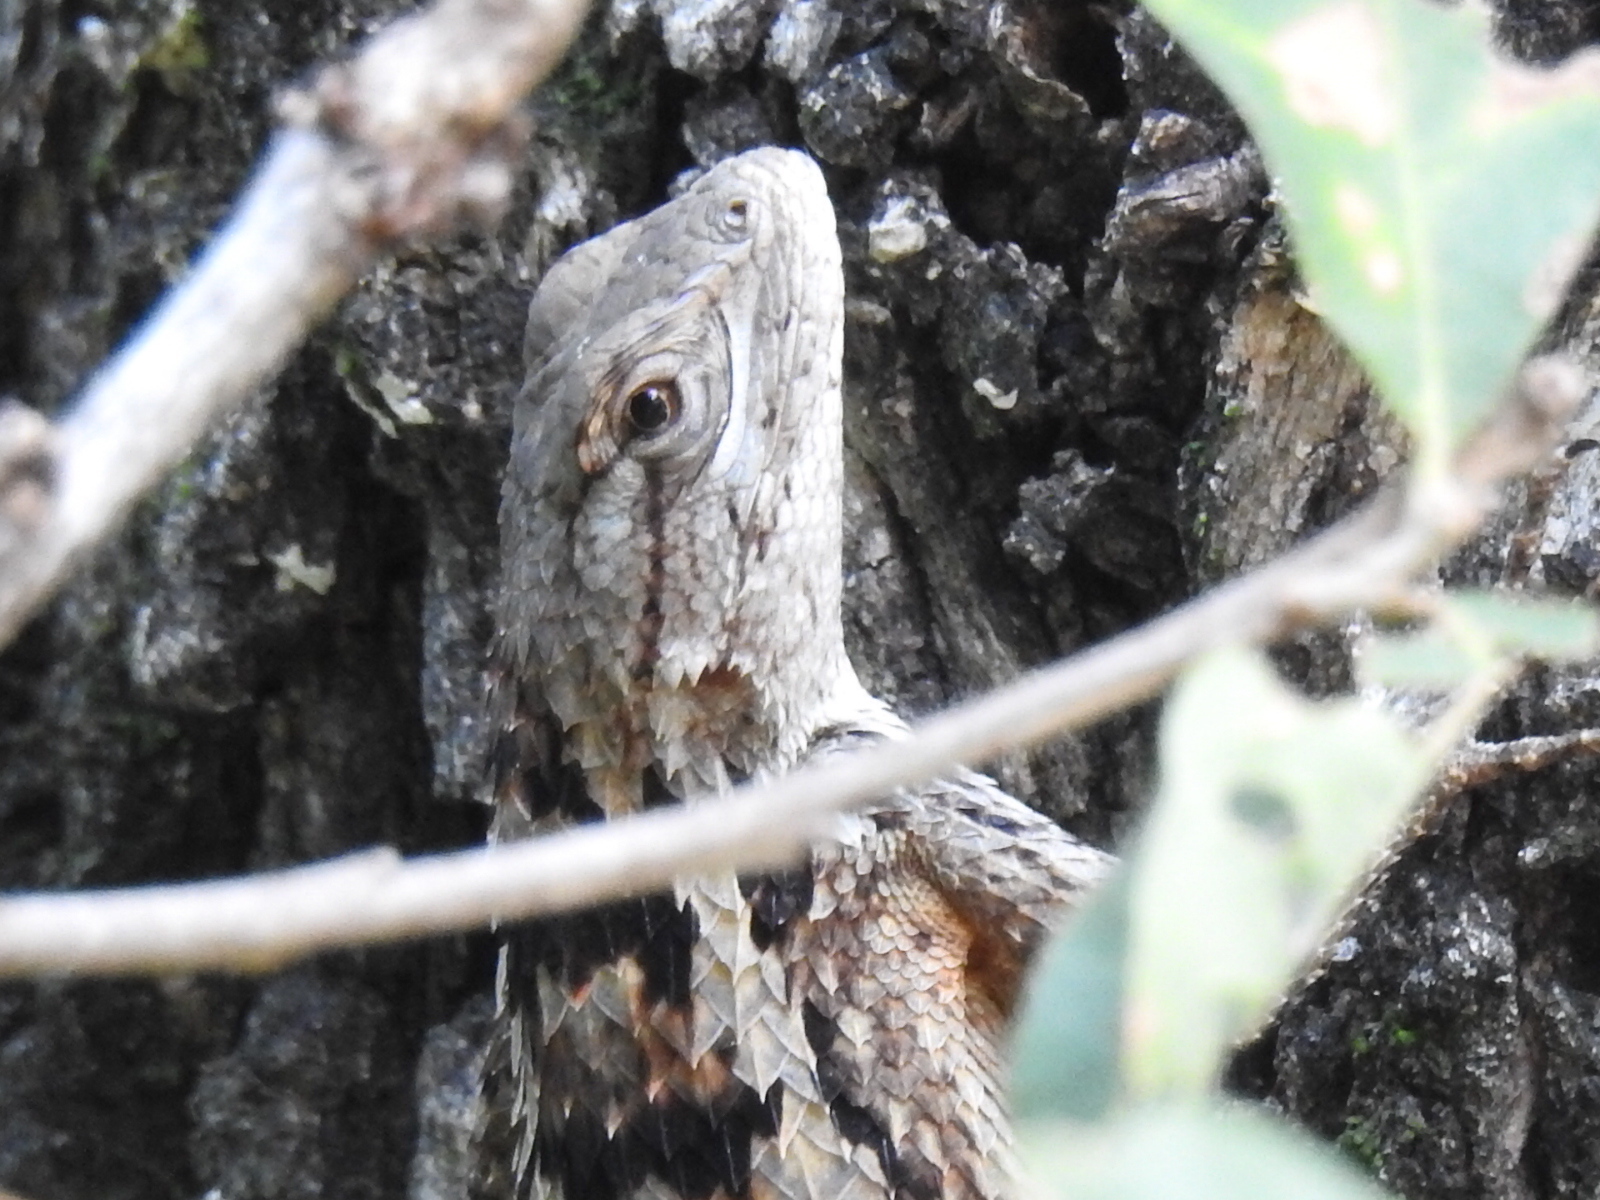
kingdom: Animalia
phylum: Chordata
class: Squamata
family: Phrynosomatidae
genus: Sceloporus
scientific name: Sceloporus olivaceus
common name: Texas spiny lizard
